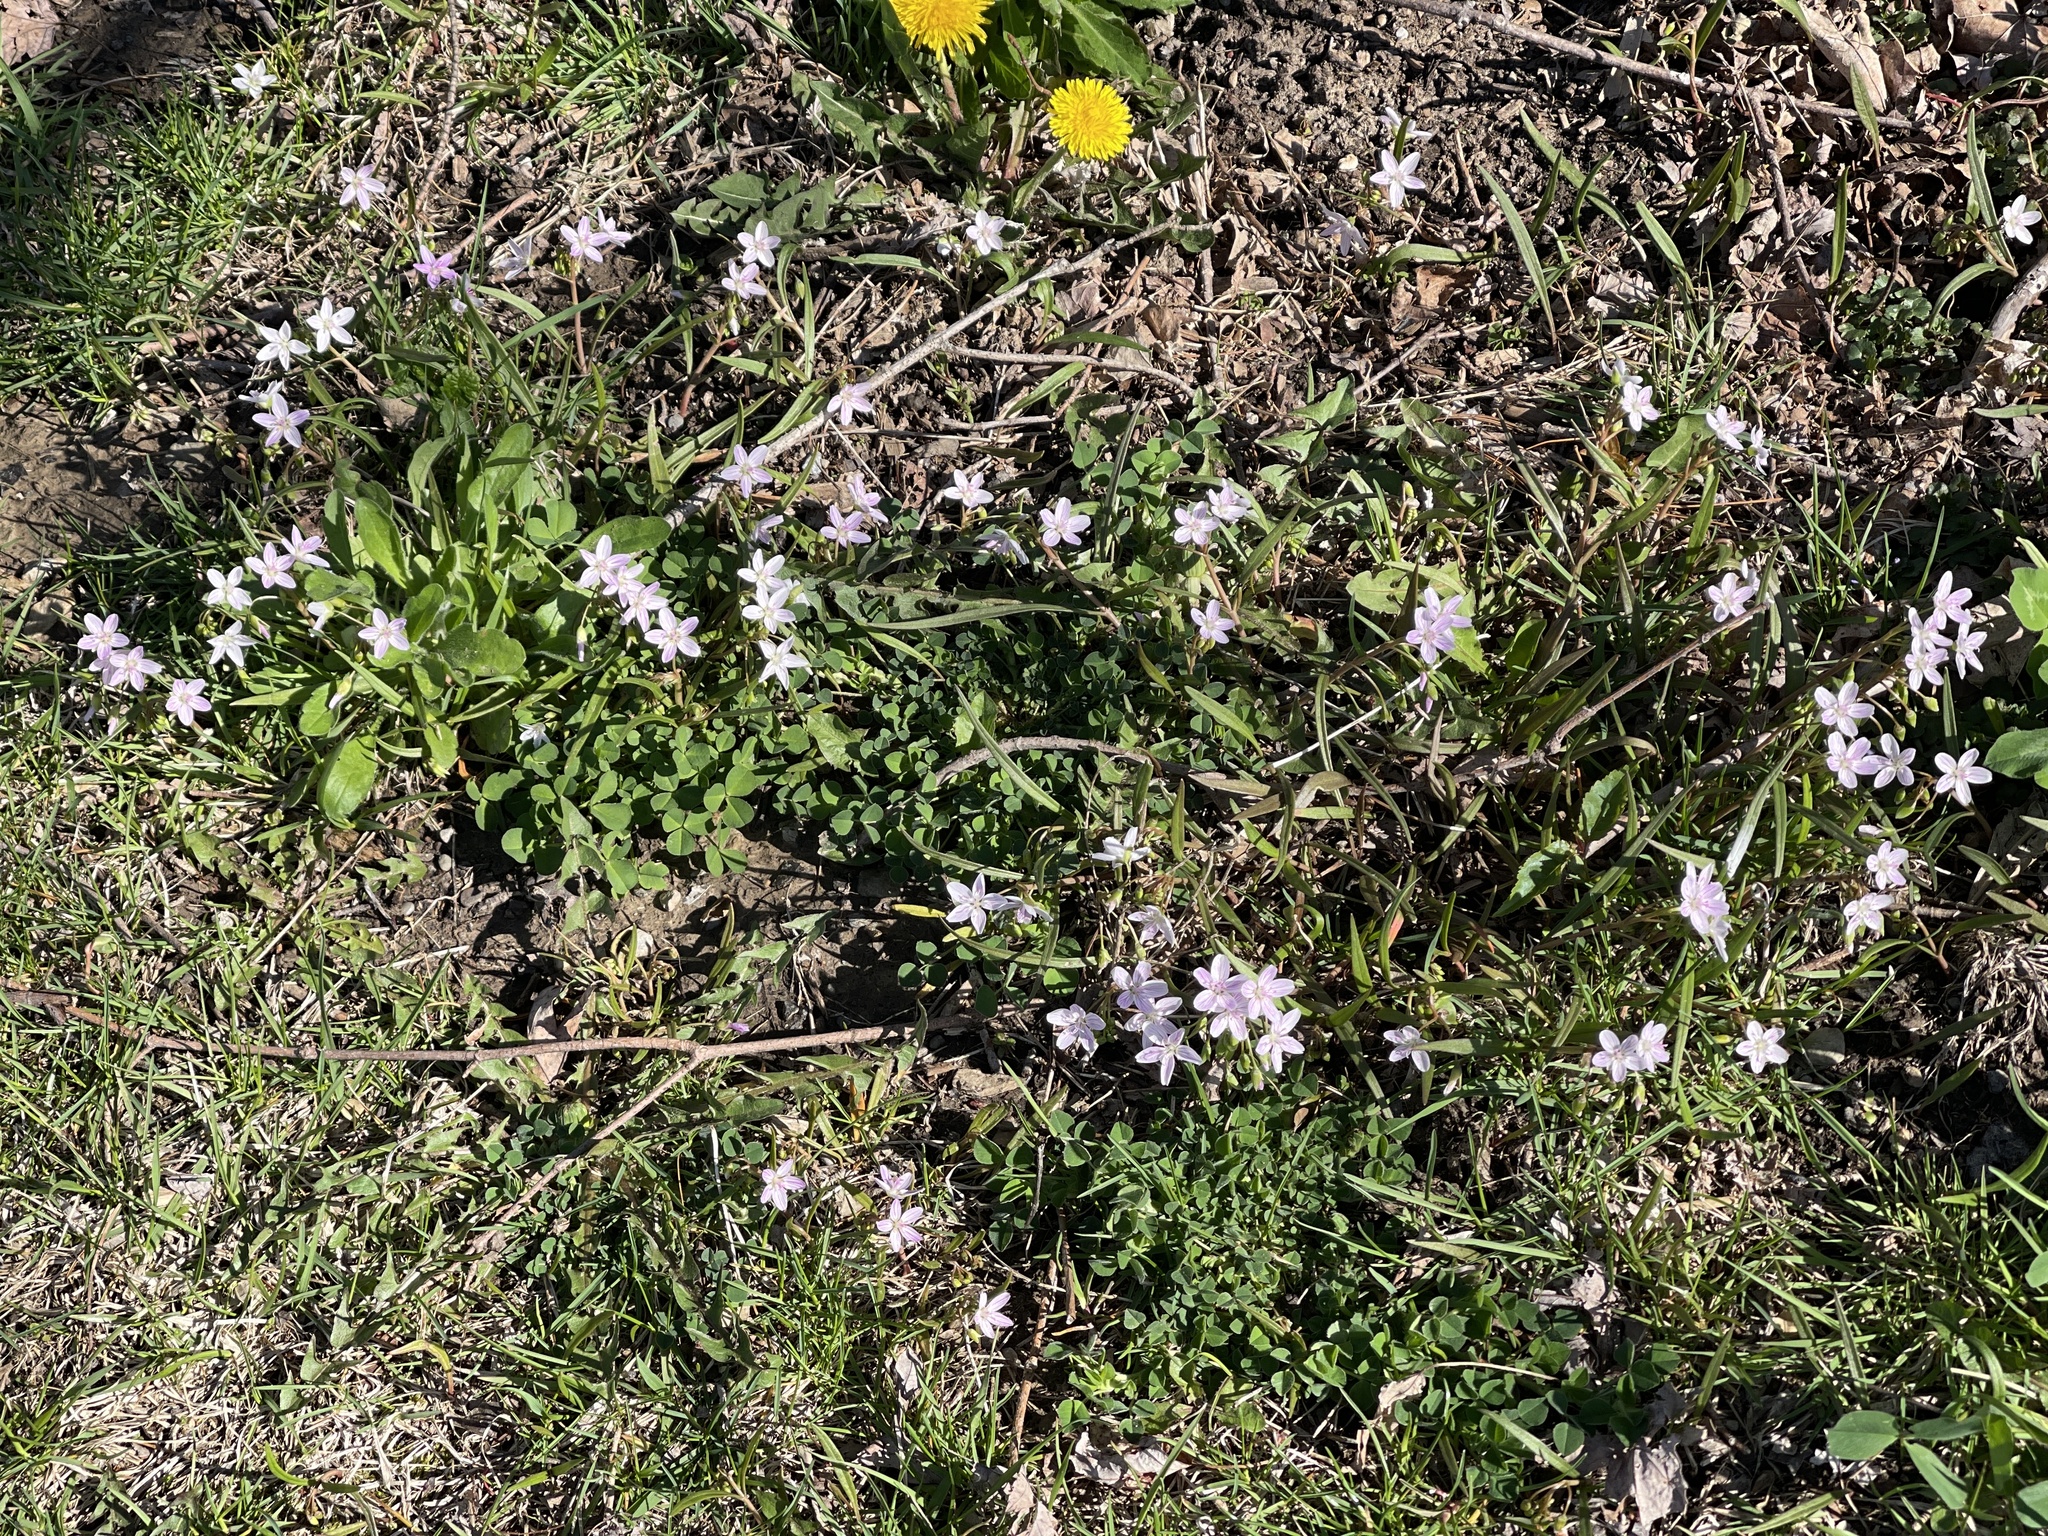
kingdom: Plantae
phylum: Tracheophyta
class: Magnoliopsida
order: Caryophyllales
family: Montiaceae
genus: Claytonia
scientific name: Claytonia virginica
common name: Virginia springbeauty
